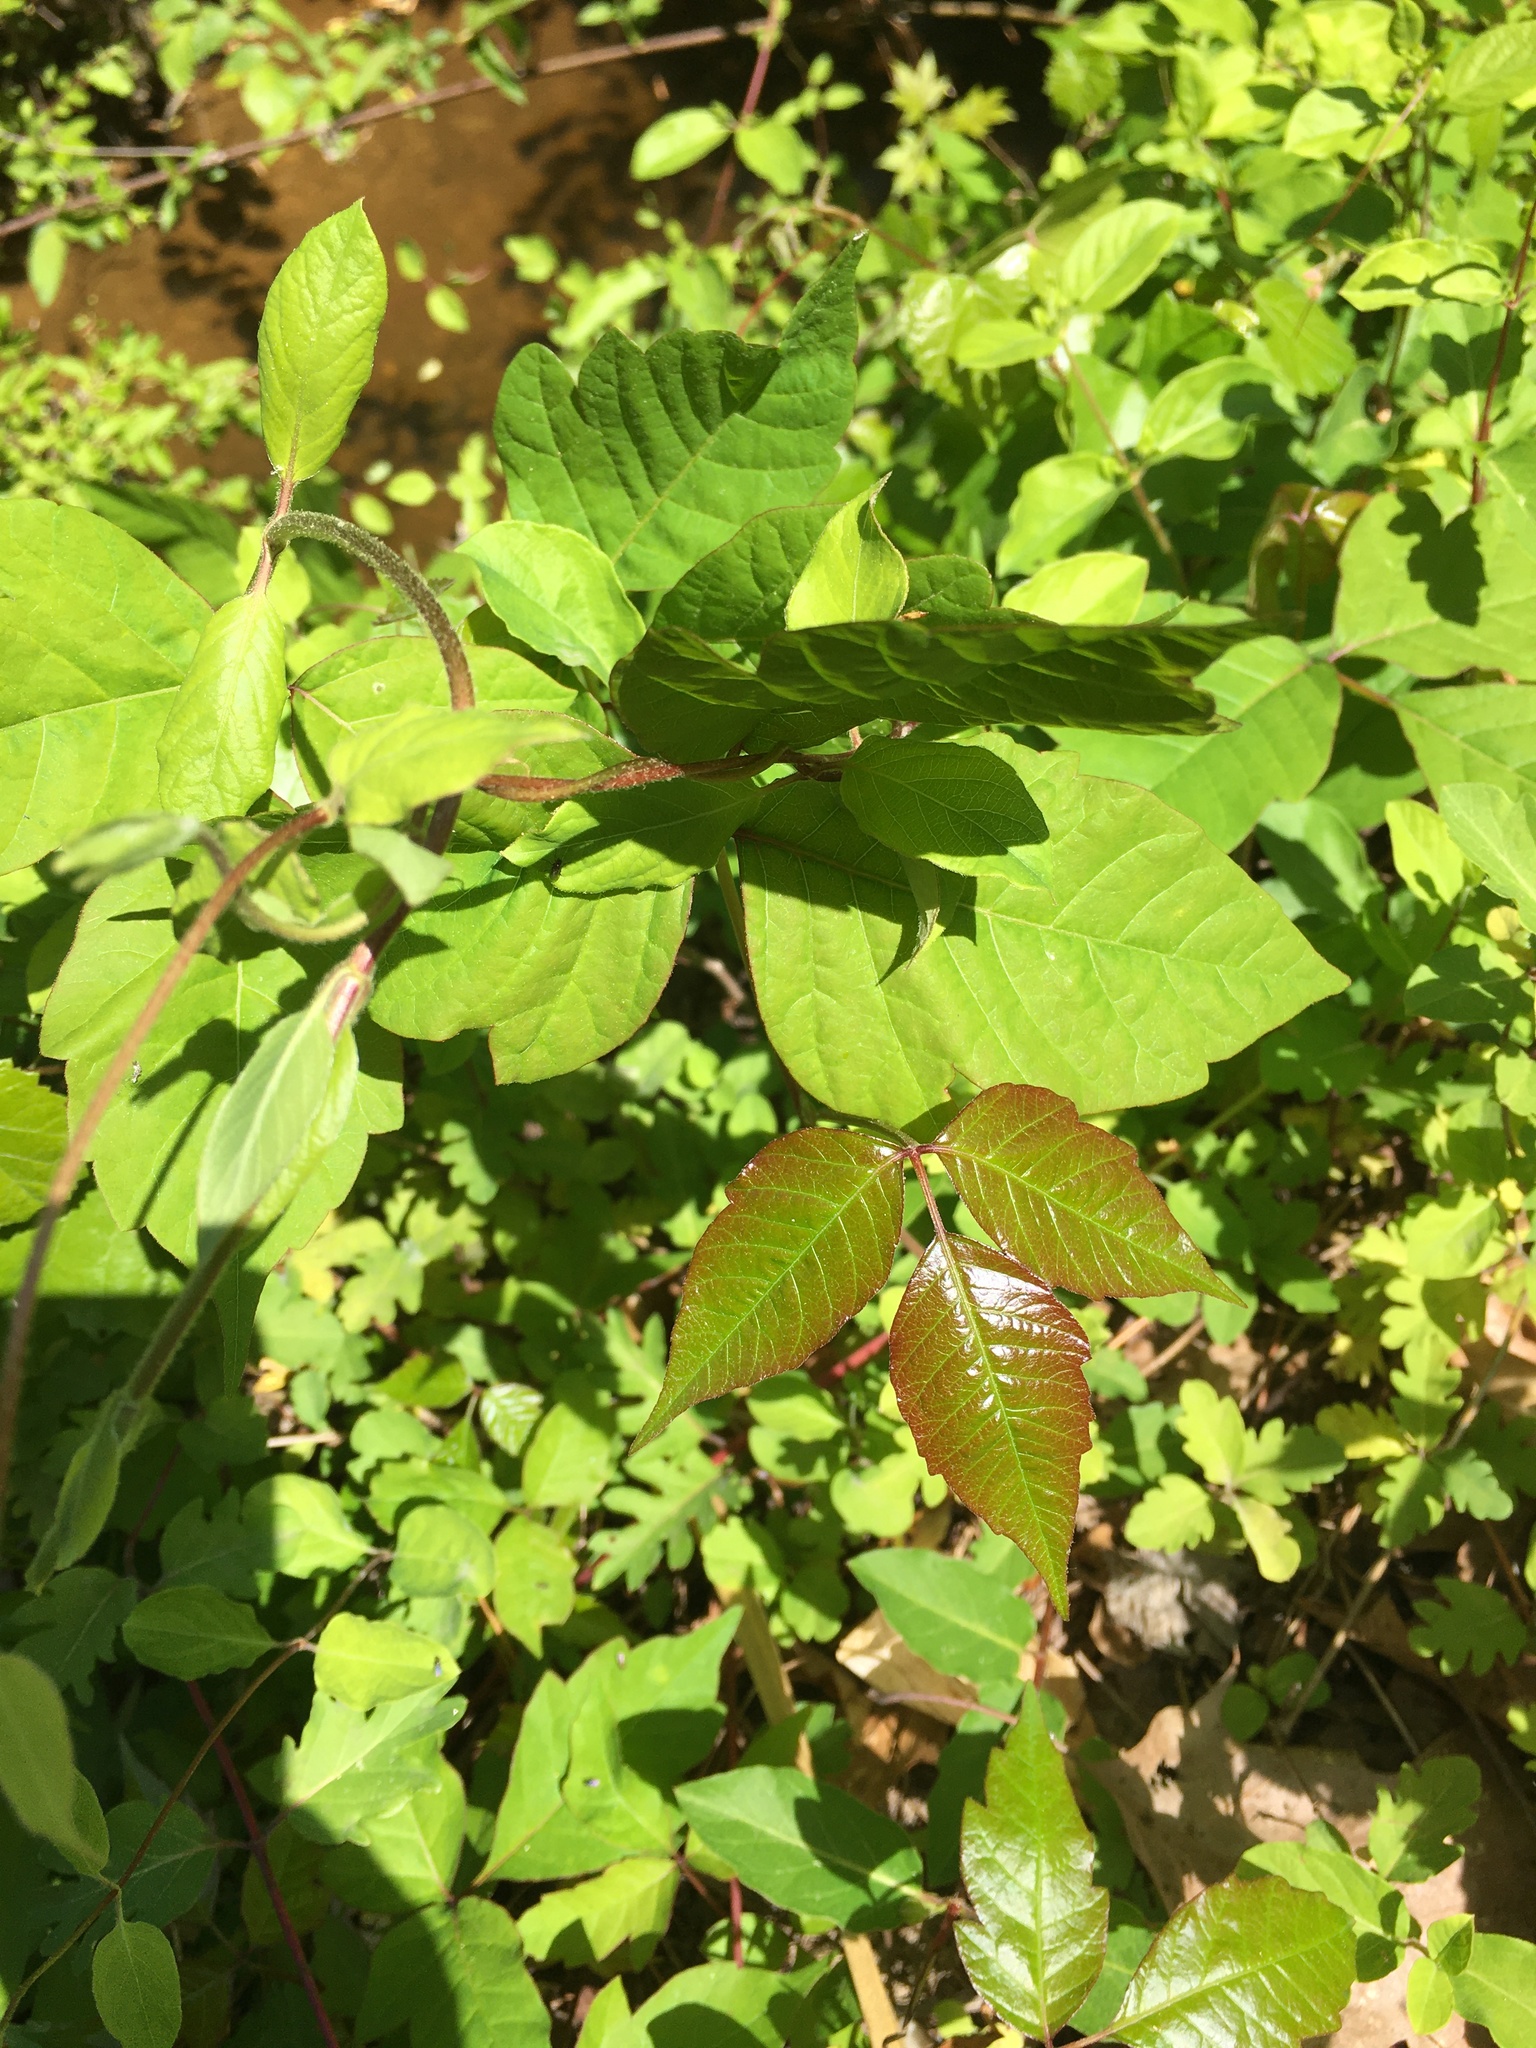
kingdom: Plantae
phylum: Tracheophyta
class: Magnoliopsida
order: Sapindales
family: Anacardiaceae
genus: Toxicodendron
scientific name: Toxicodendron radicans
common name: Poison ivy
